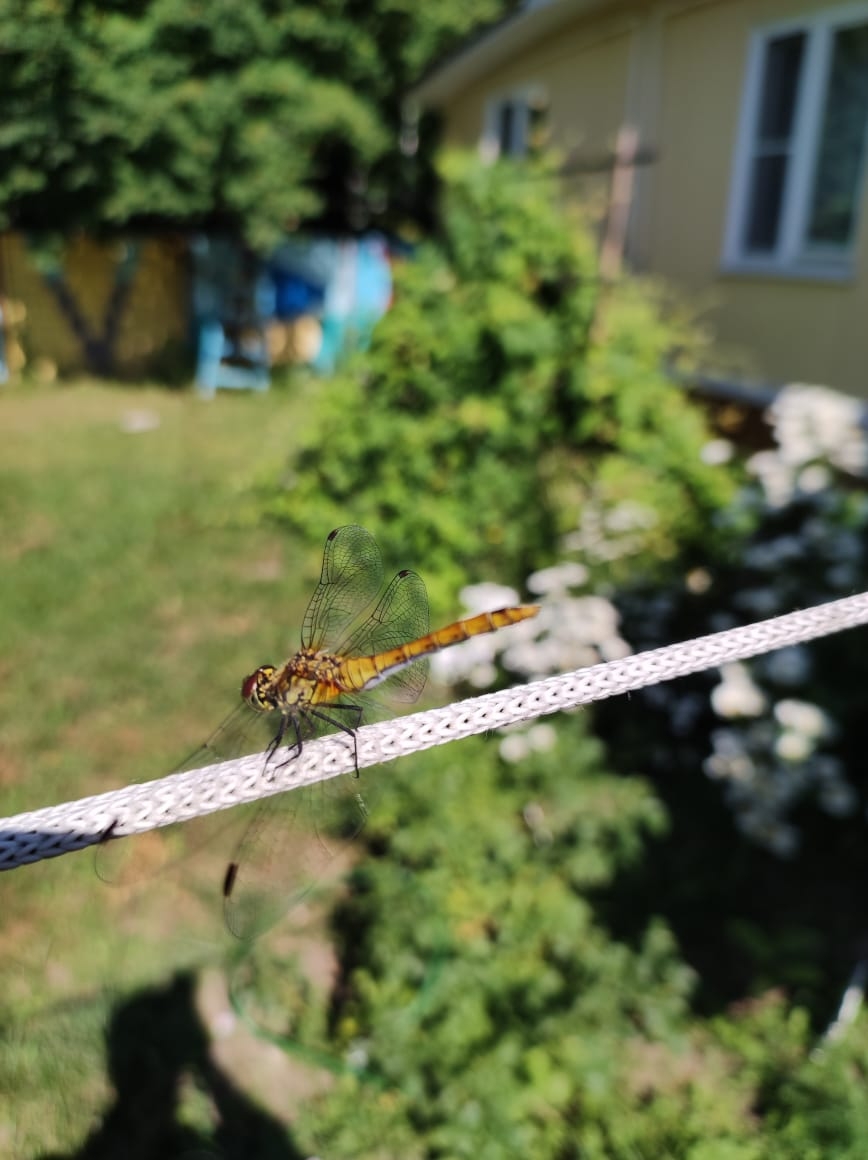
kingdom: Animalia
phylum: Arthropoda
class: Insecta
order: Odonata
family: Libellulidae
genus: Sympetrum
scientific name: Sympetrum sanguineum
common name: Ruddy darter
